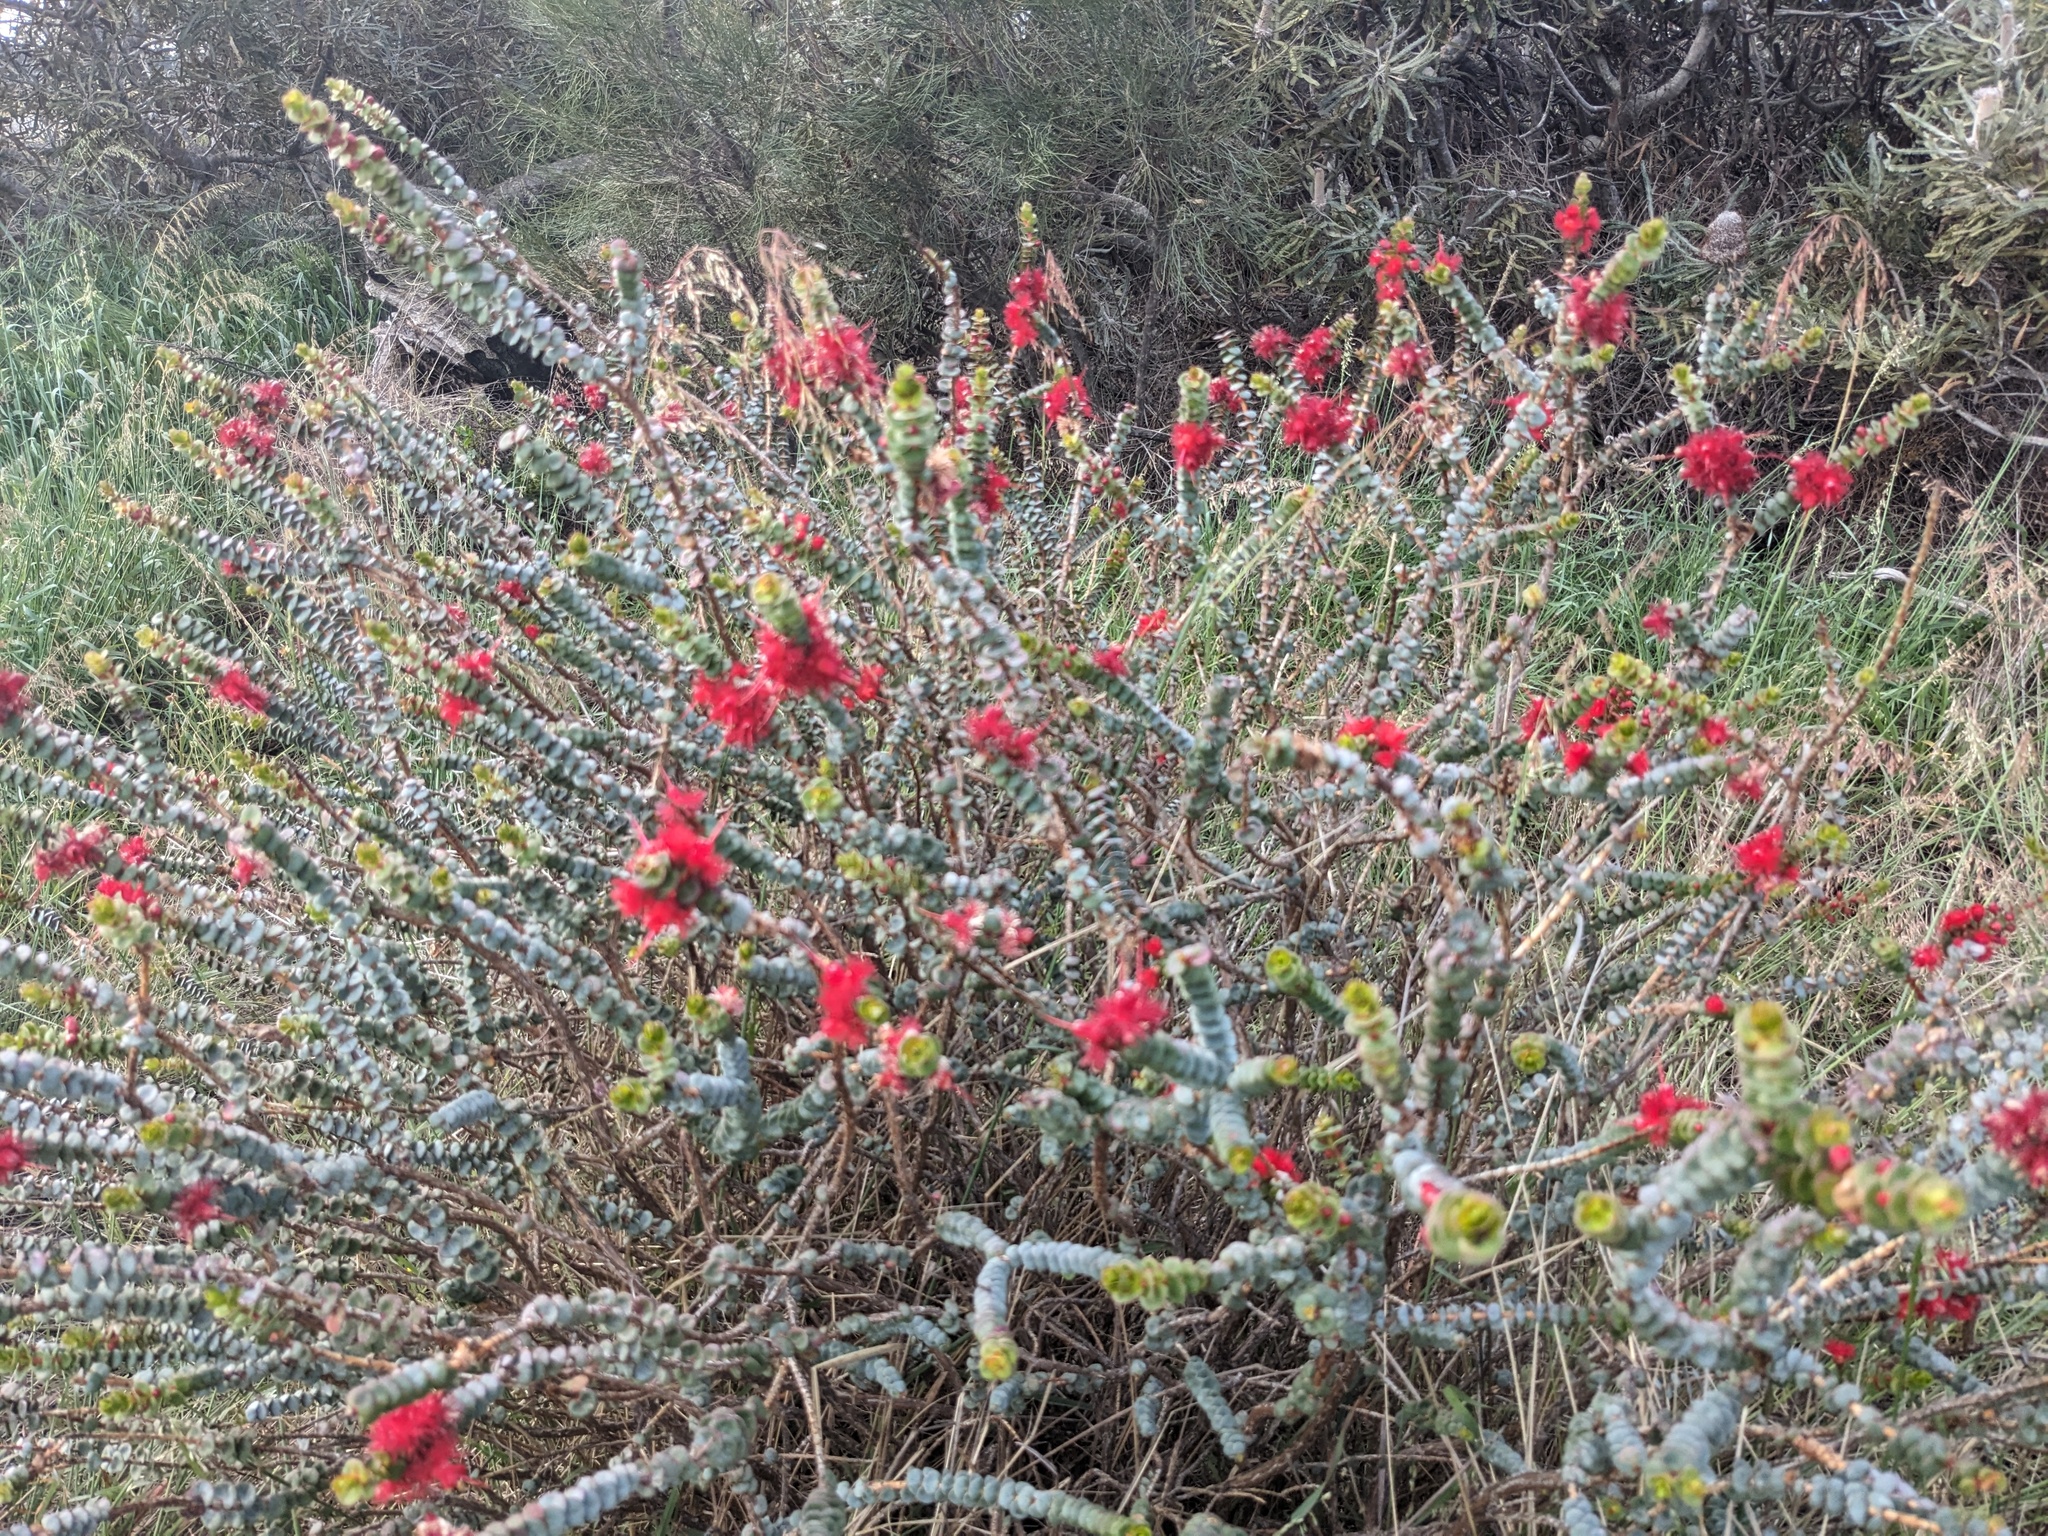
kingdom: Plantae
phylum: Tracheophyta
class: Magnoliopsida
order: Myrtales
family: Myrtaceae
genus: Verticordia
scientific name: Verticordia grandis
